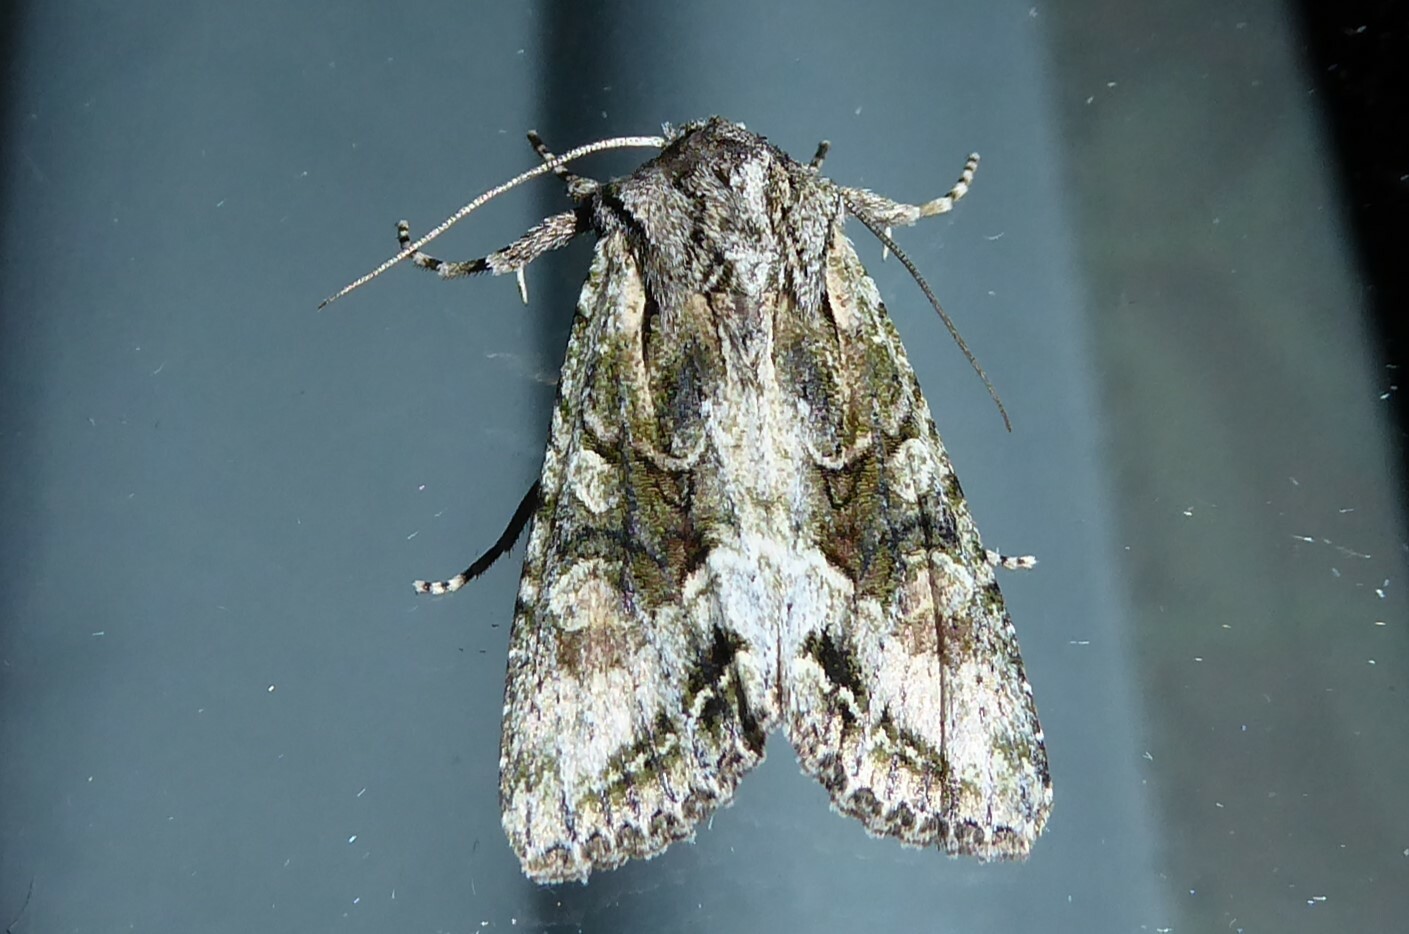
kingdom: Animalia
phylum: Arthropoda
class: Insecta
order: Lepidoptera
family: Noctuidae
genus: Ichneutica
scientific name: Ichneutica mutans
